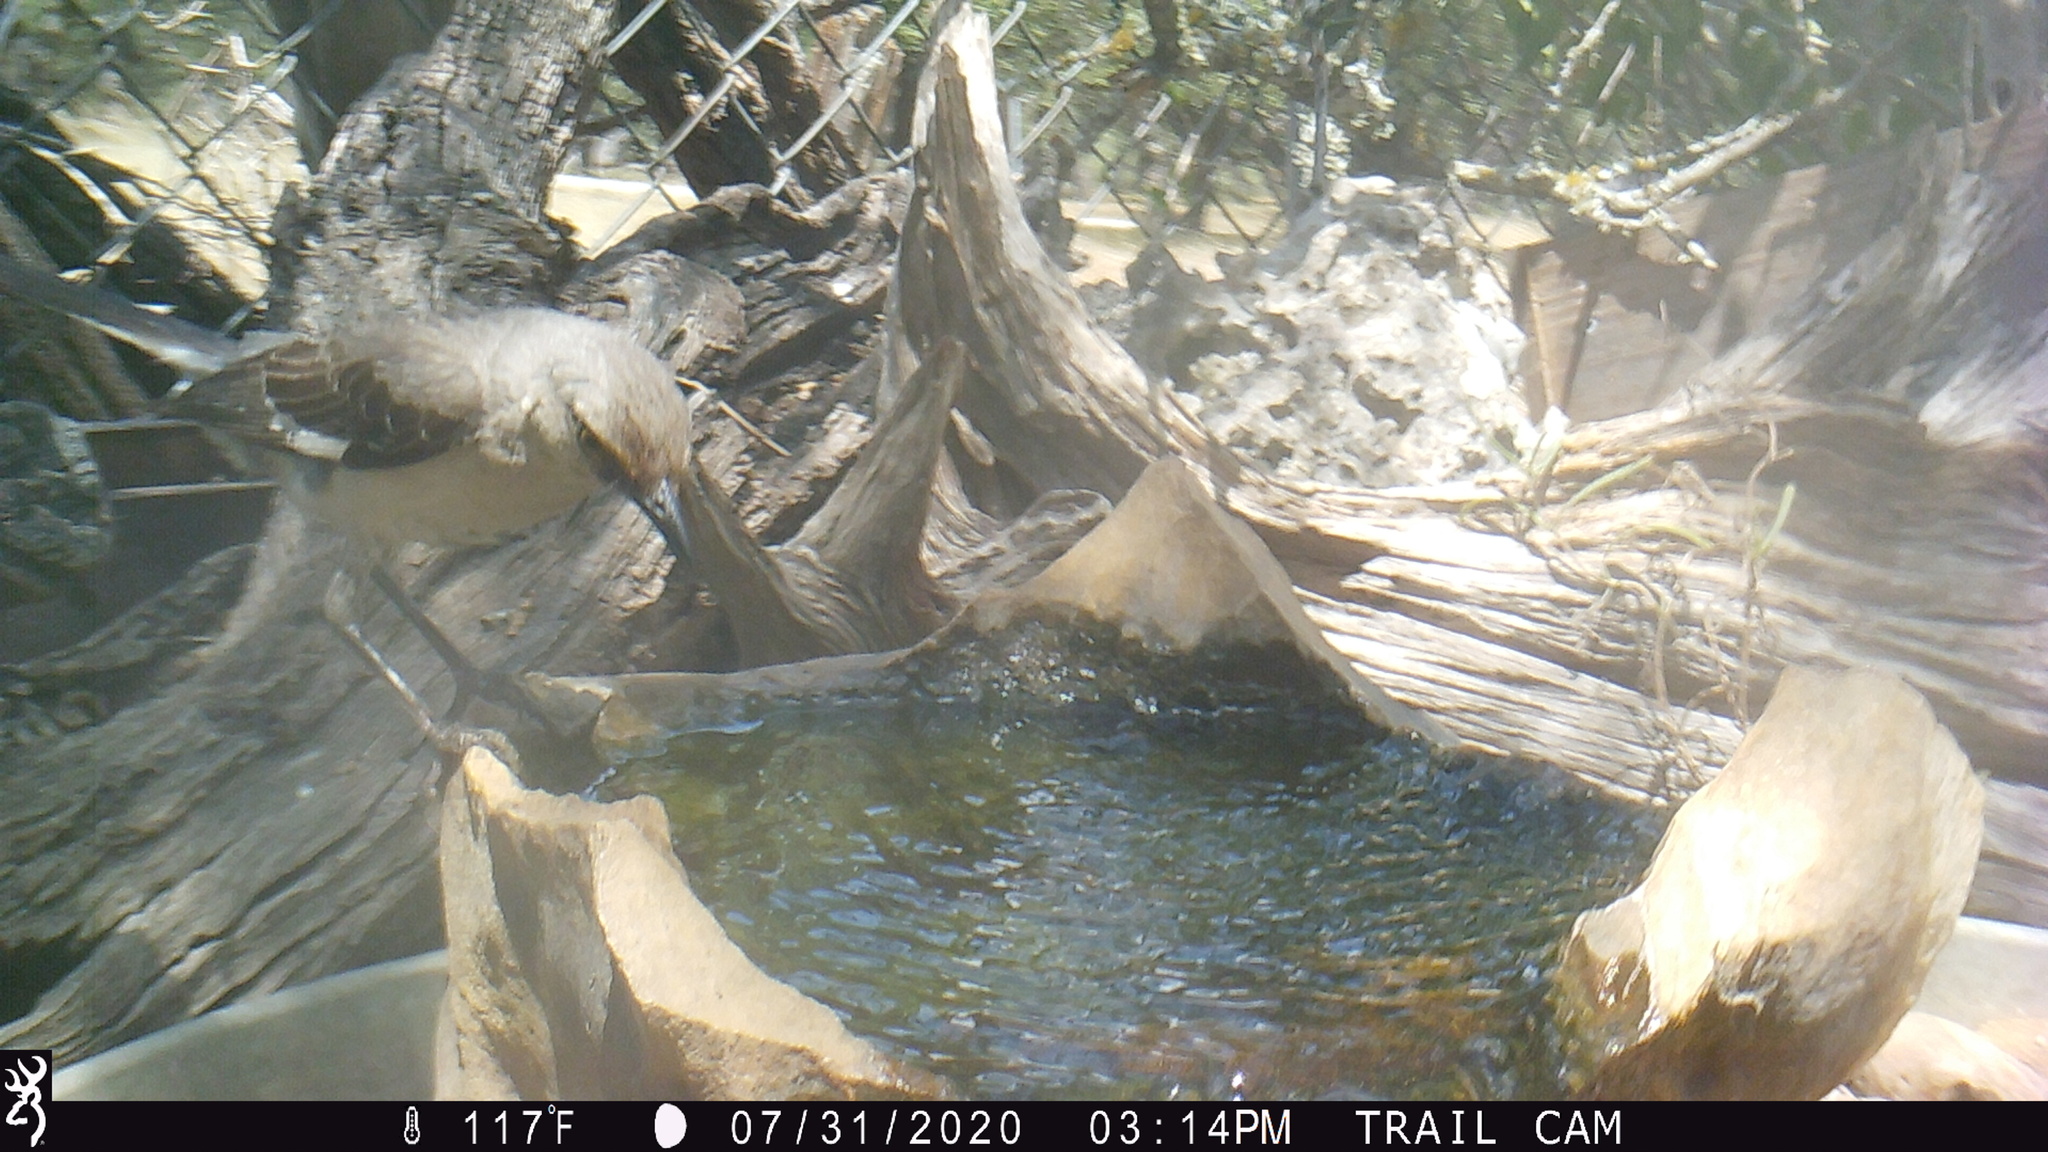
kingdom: Animalia
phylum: Chordata
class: Aves
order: Passeriformes
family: Mimidae
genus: Mimus
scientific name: Mimus polyglottos
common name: Northern mockingbird
